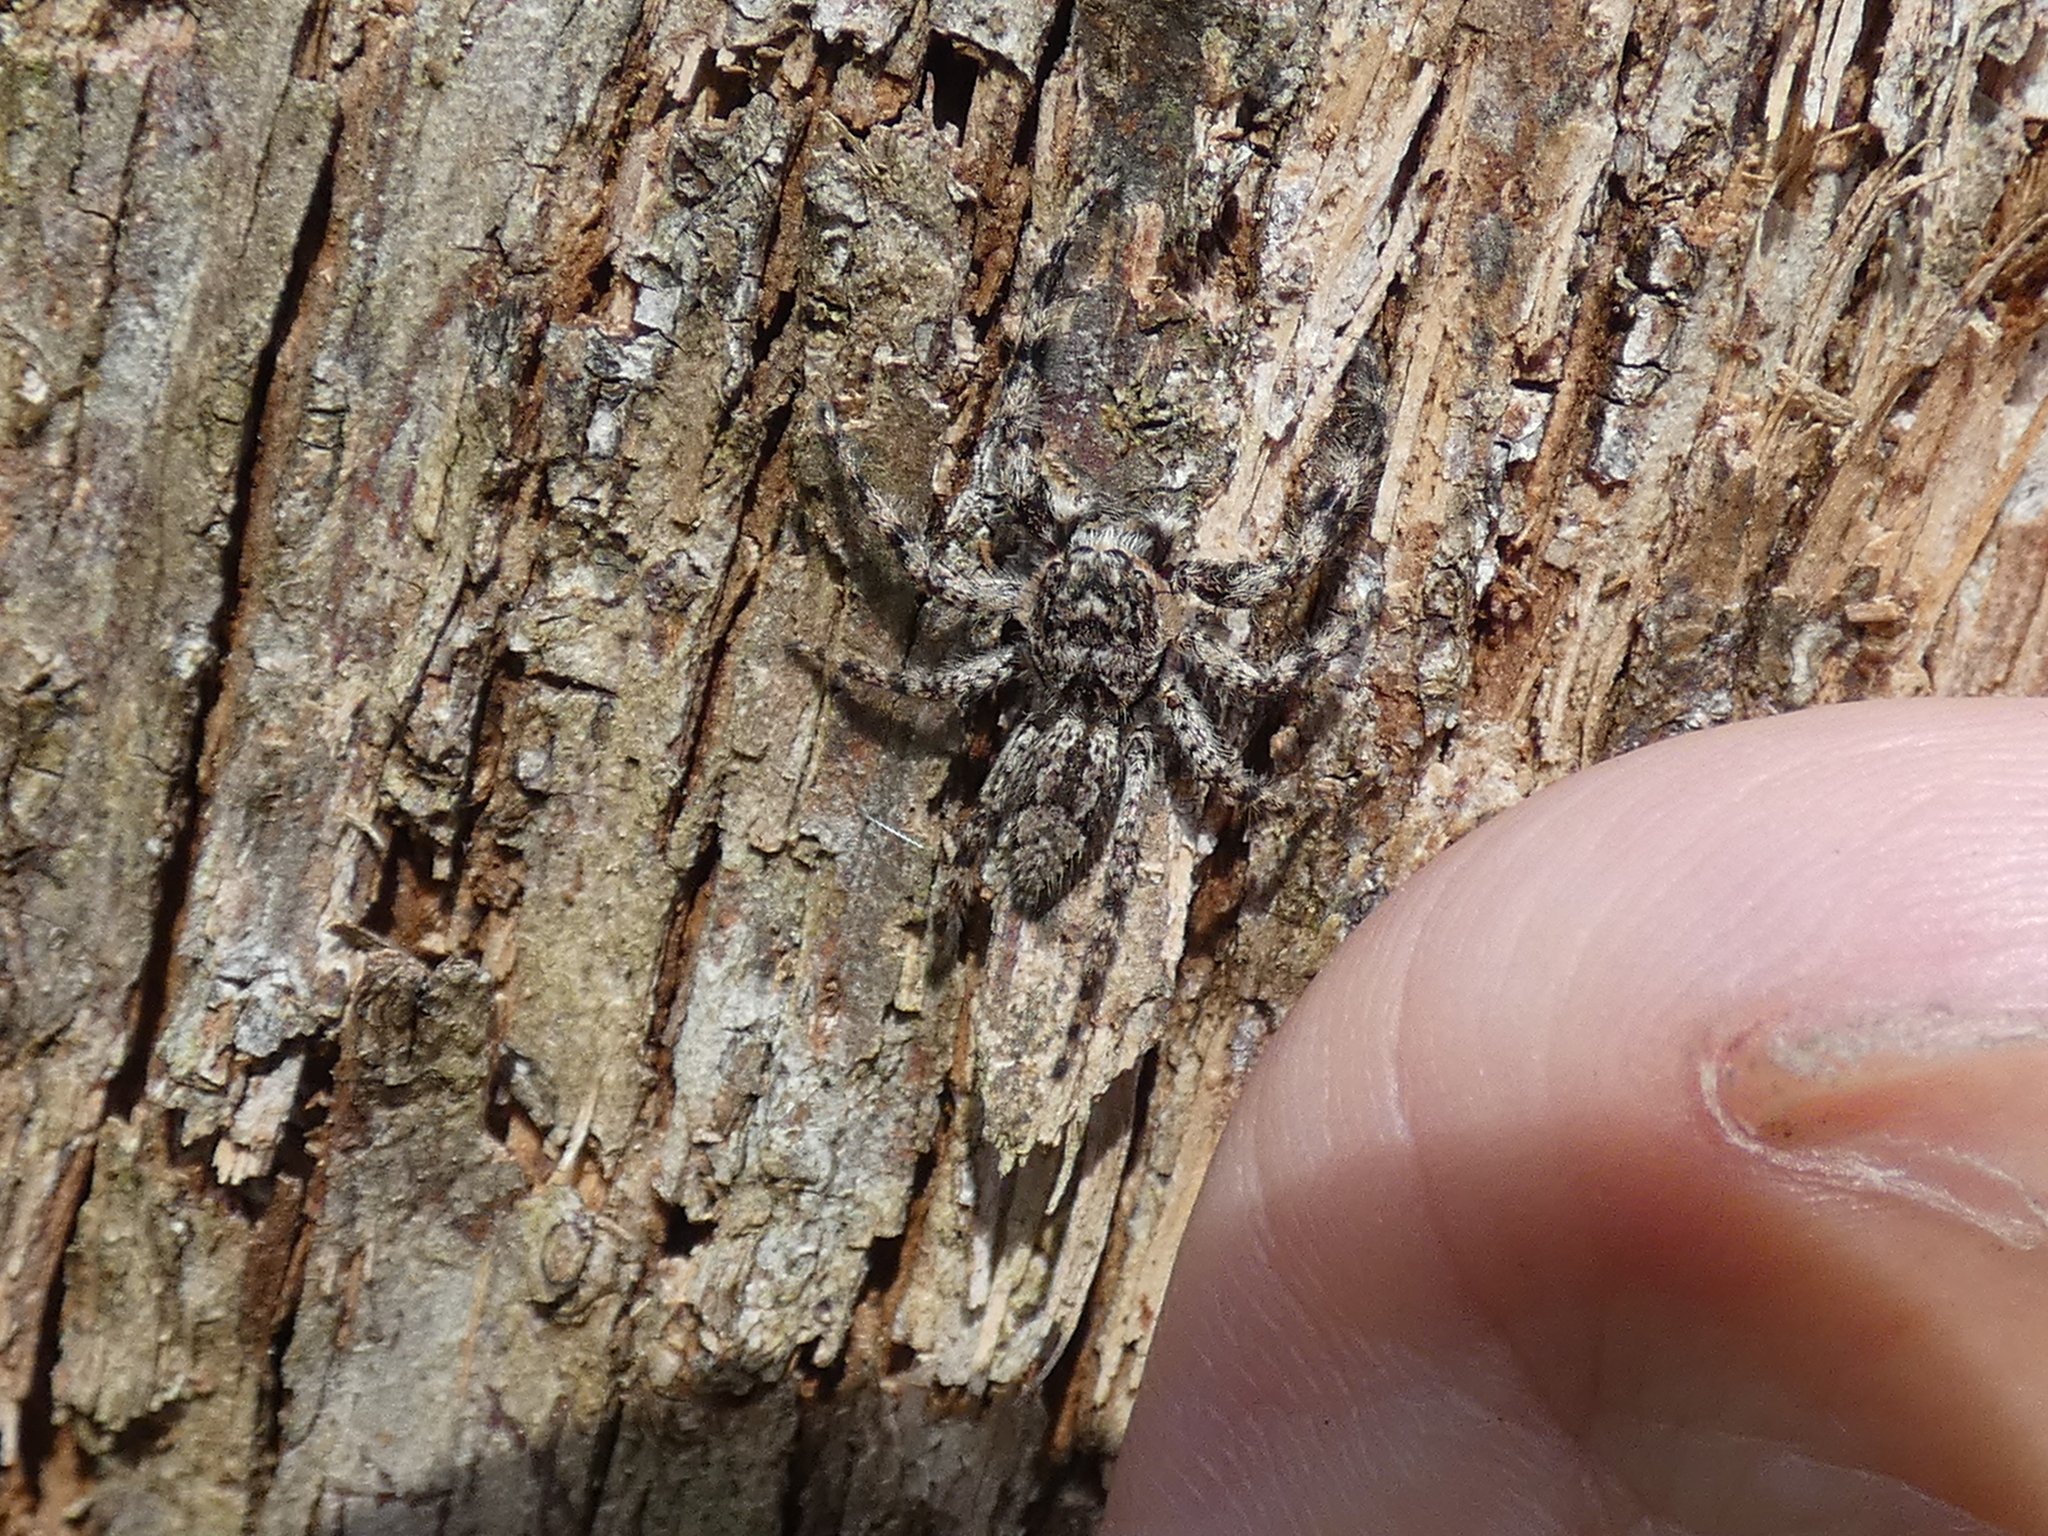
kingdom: Animalia
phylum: Arthropoda
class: Arachnida
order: Araneae
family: Salticidae
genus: Platycryptus
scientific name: Platycryptus undatus
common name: Tan jumping spider
